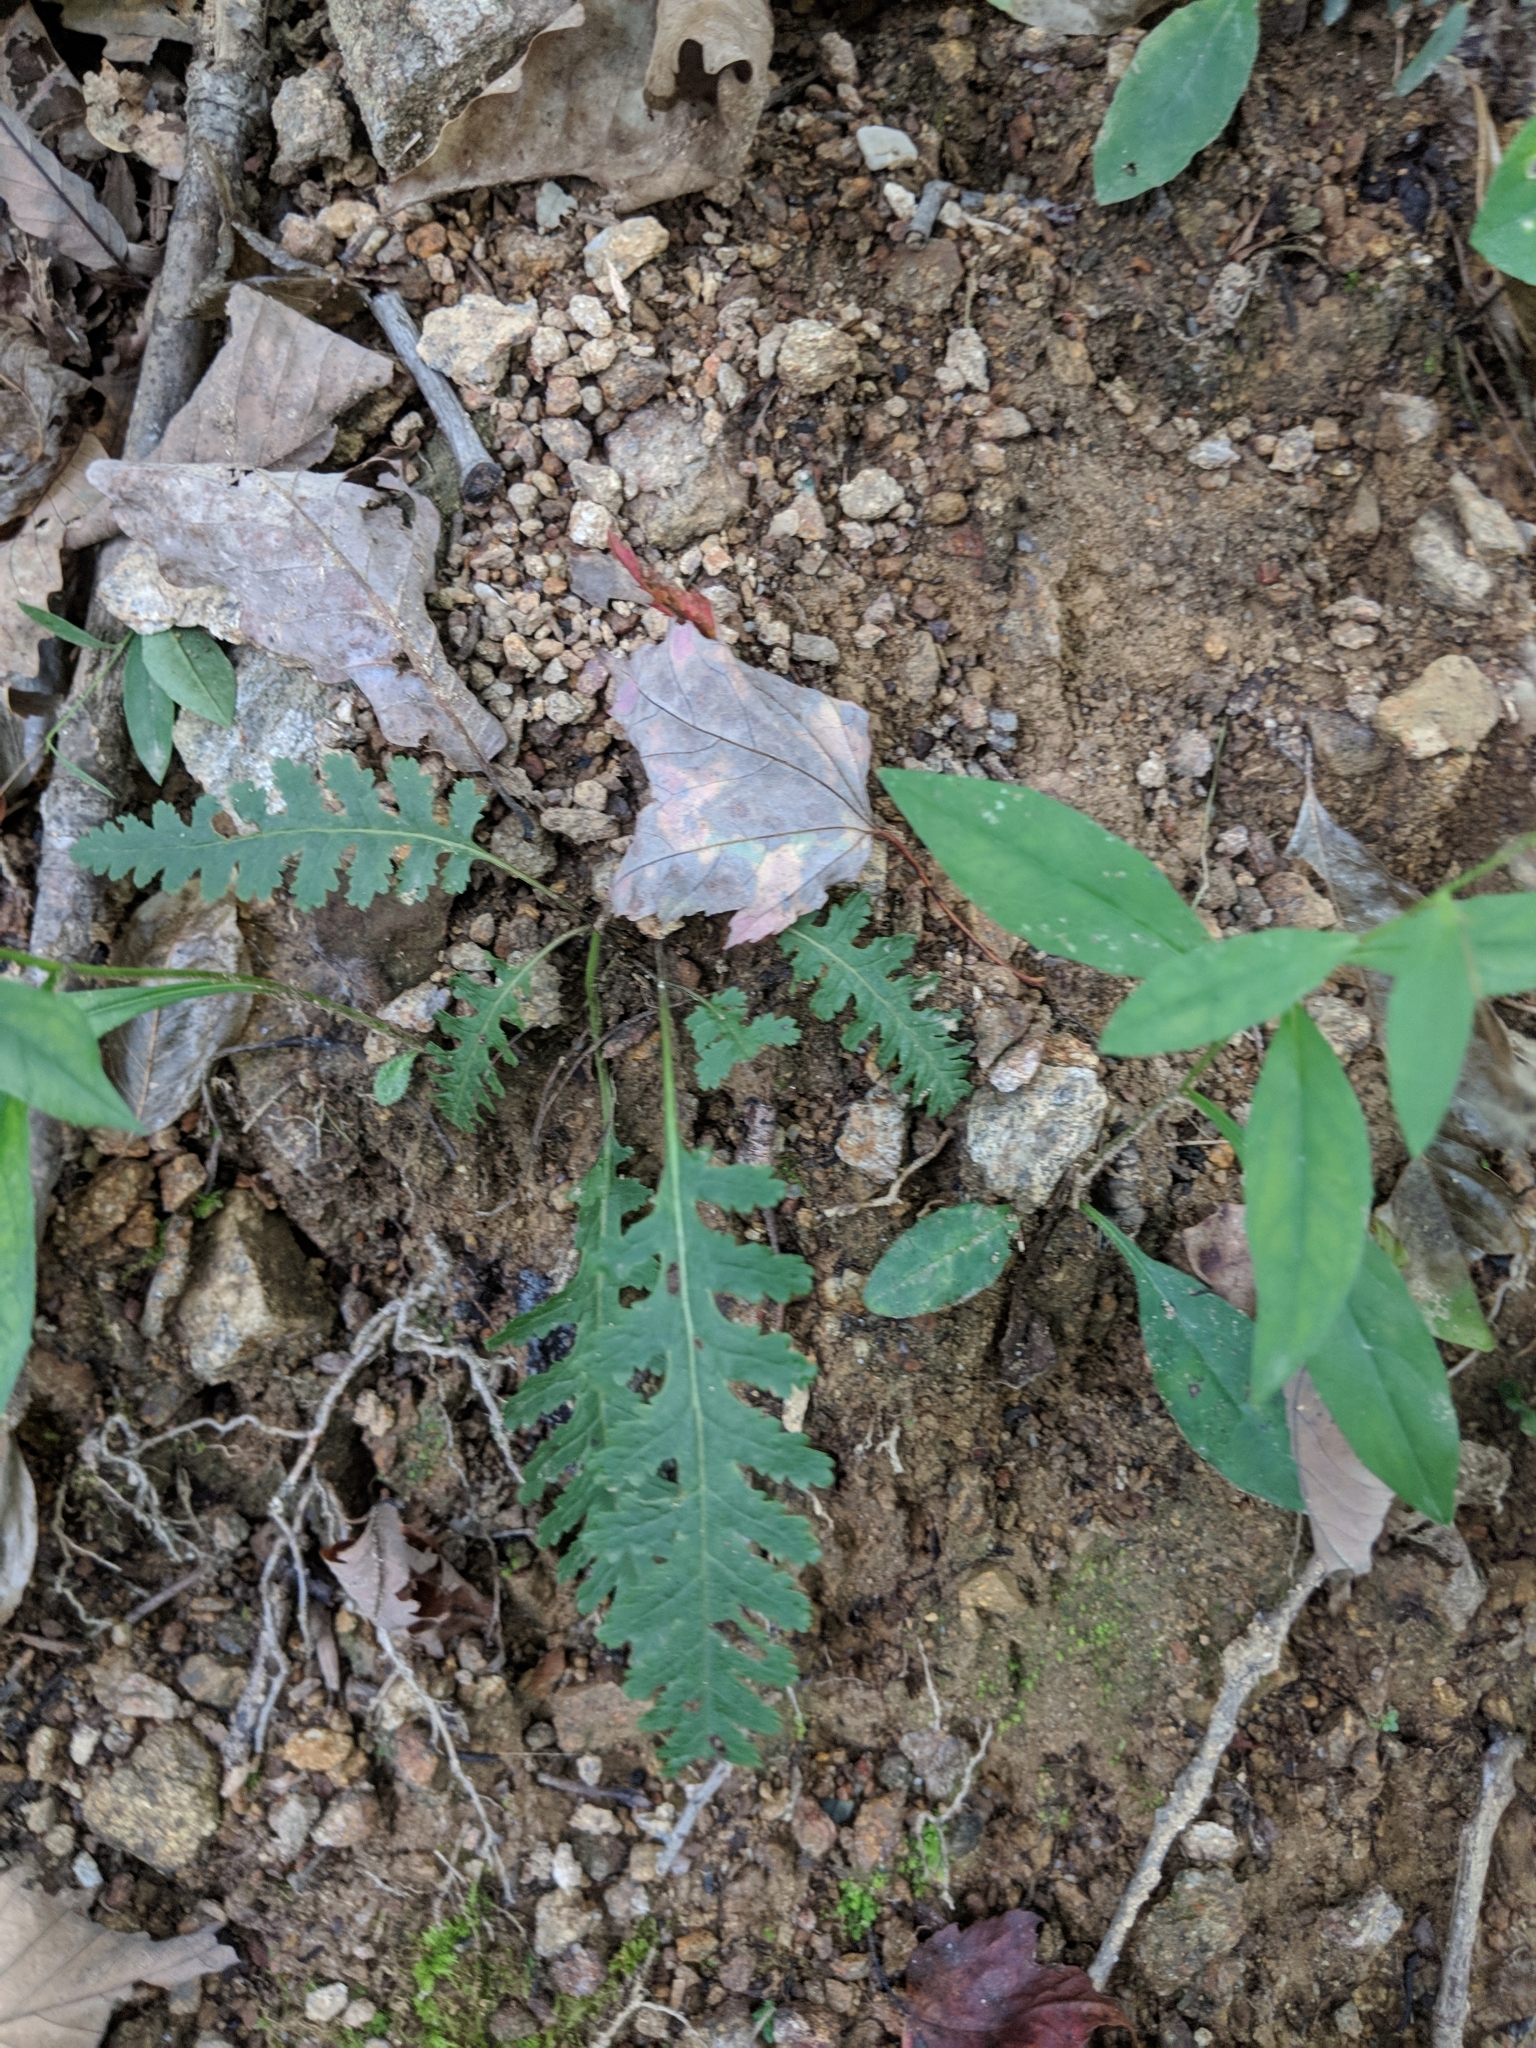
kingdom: Plantae
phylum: Tracheophyta
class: Magnoliopsida
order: Lamiales
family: Orobanchaceae
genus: Pedicularis
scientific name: Pedicularis canadensis
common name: Early lousewort
